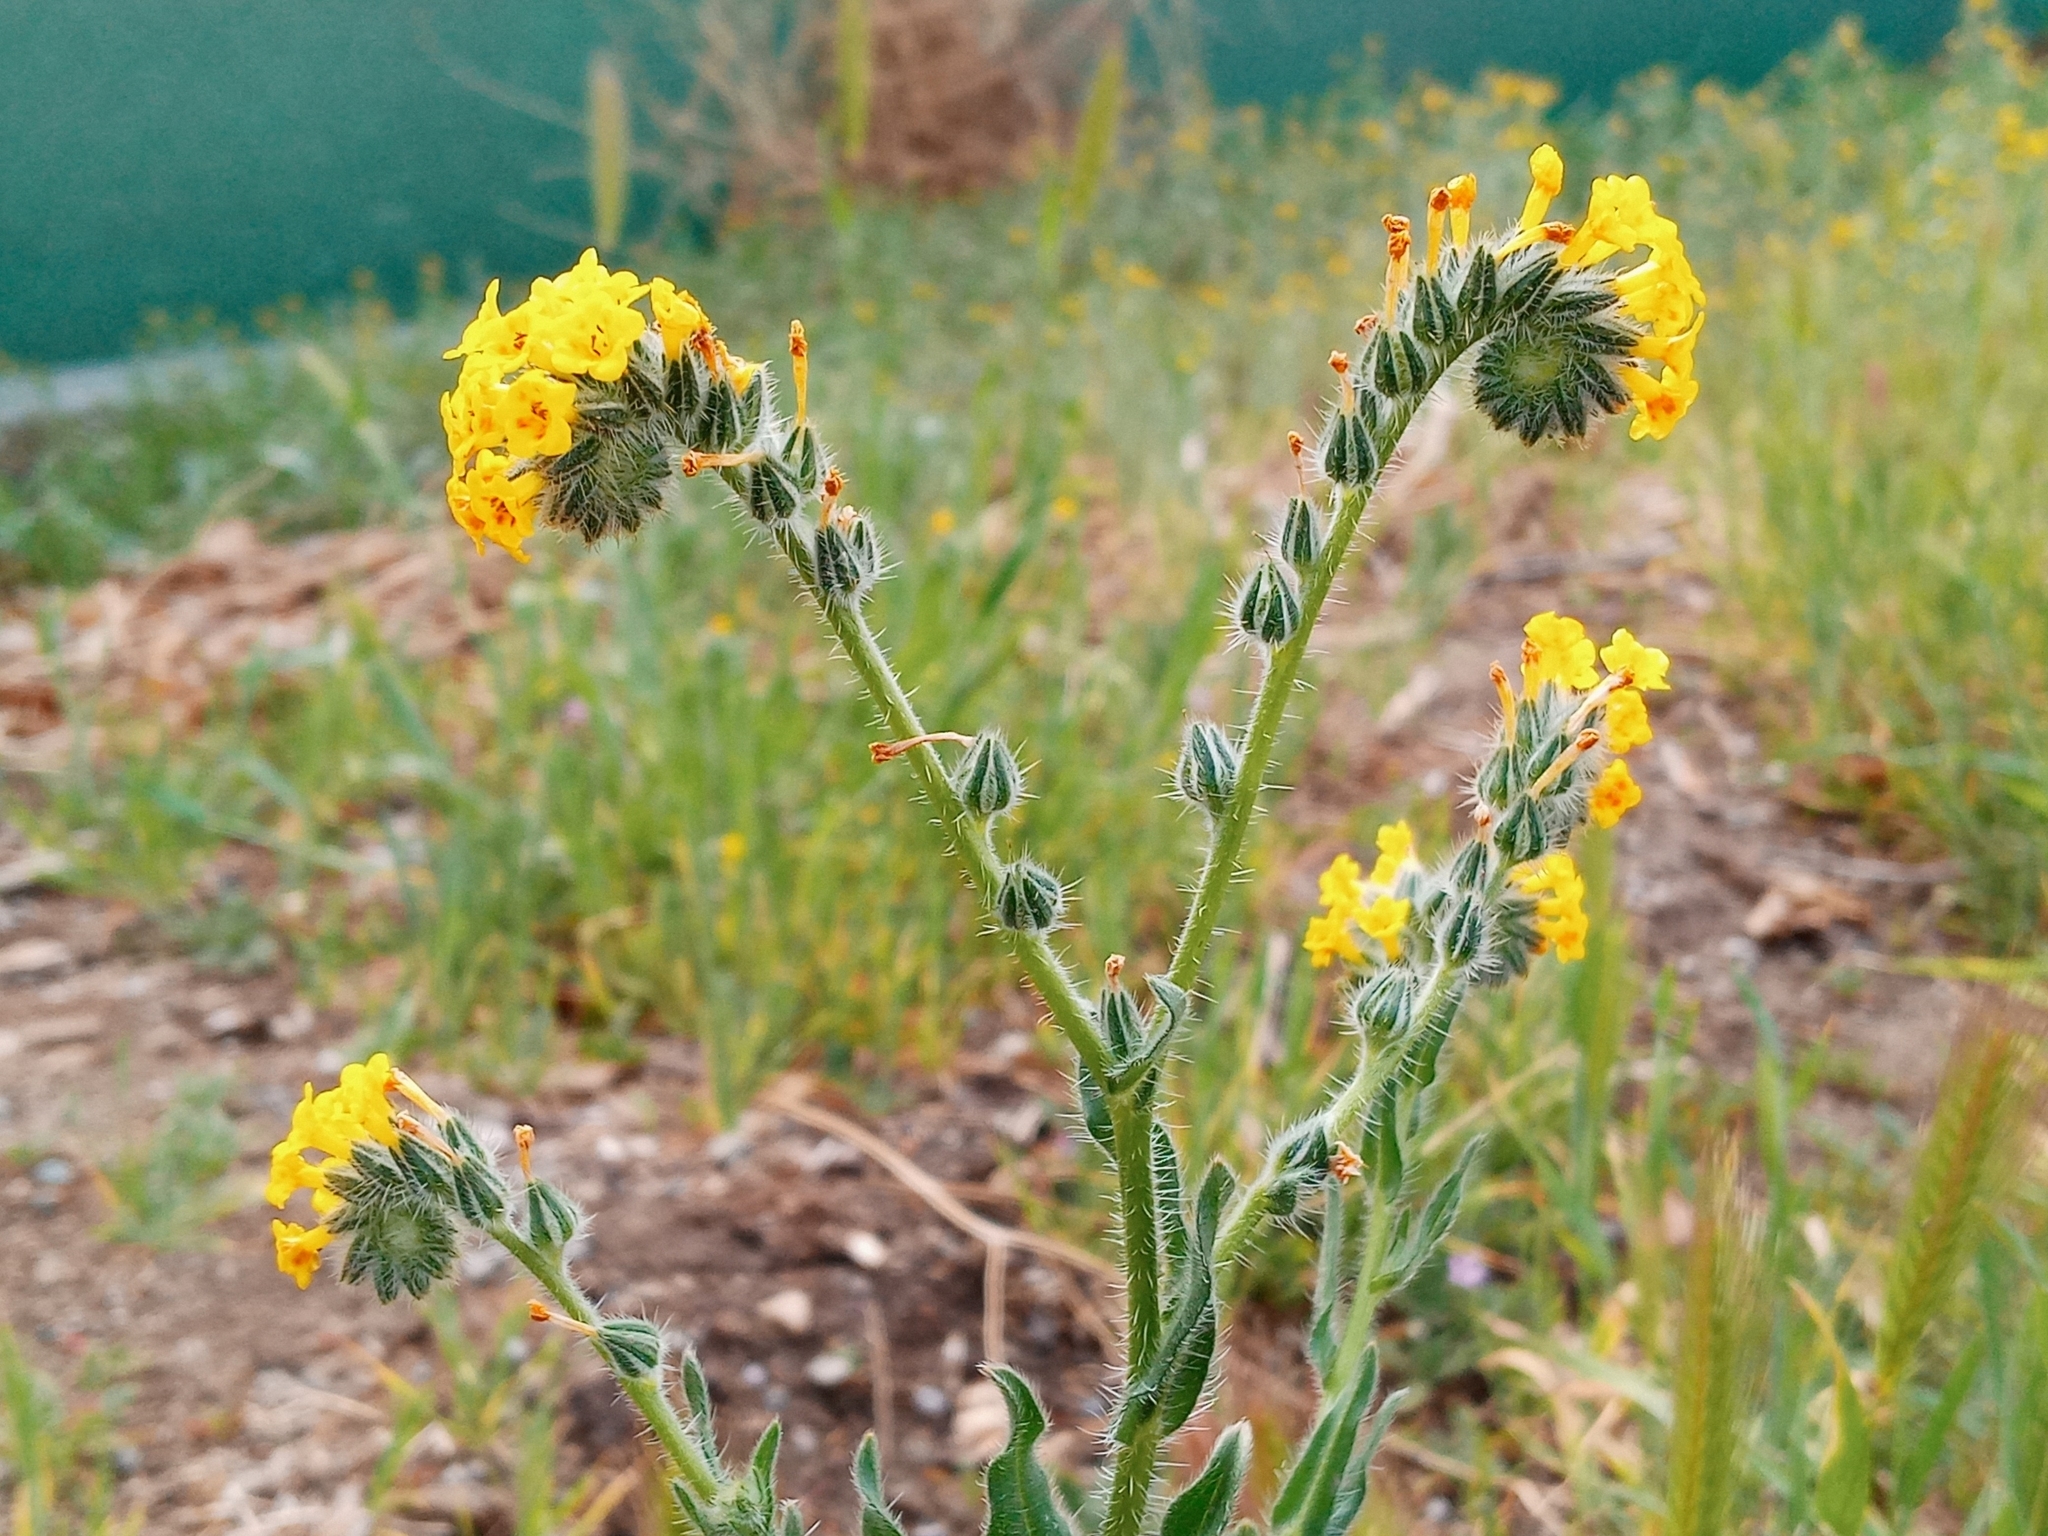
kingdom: Plantae
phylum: Tracheophyta
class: Magnoliopsida
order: Boraginales
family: Boraginaceae
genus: Amsinckia
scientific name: Amsinckia menziesii
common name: Menzies' fiddleneck
